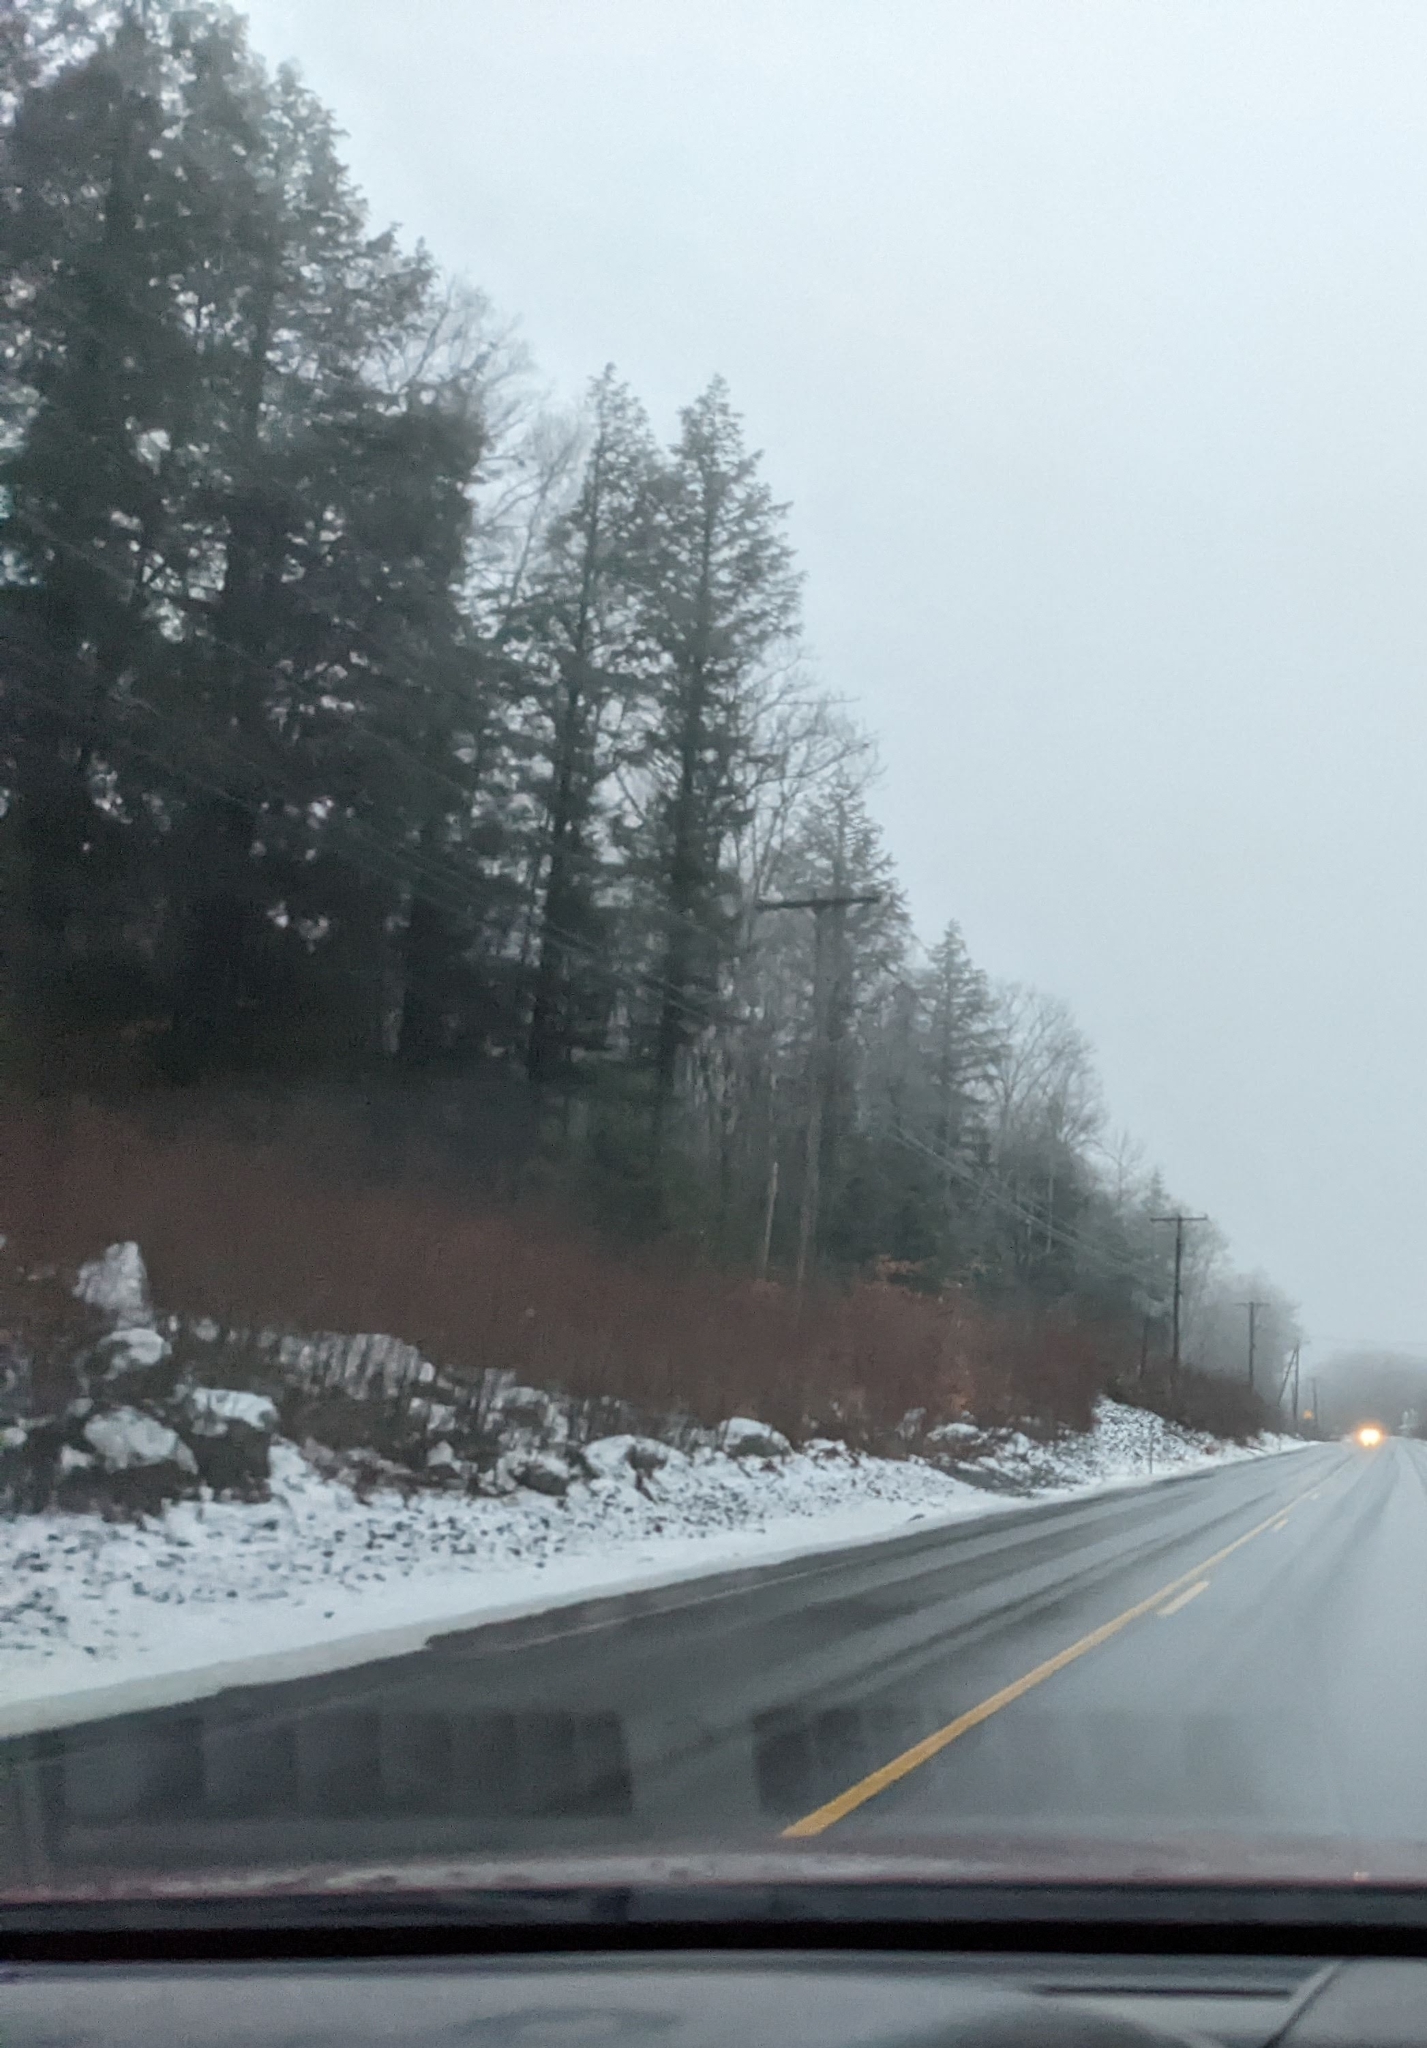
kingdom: Plantae
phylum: Tracheophyta
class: Pinopsida
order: Pinales
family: Pinaceae
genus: Tsuga
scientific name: Tsuga canadensis
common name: Eastern hemlock
